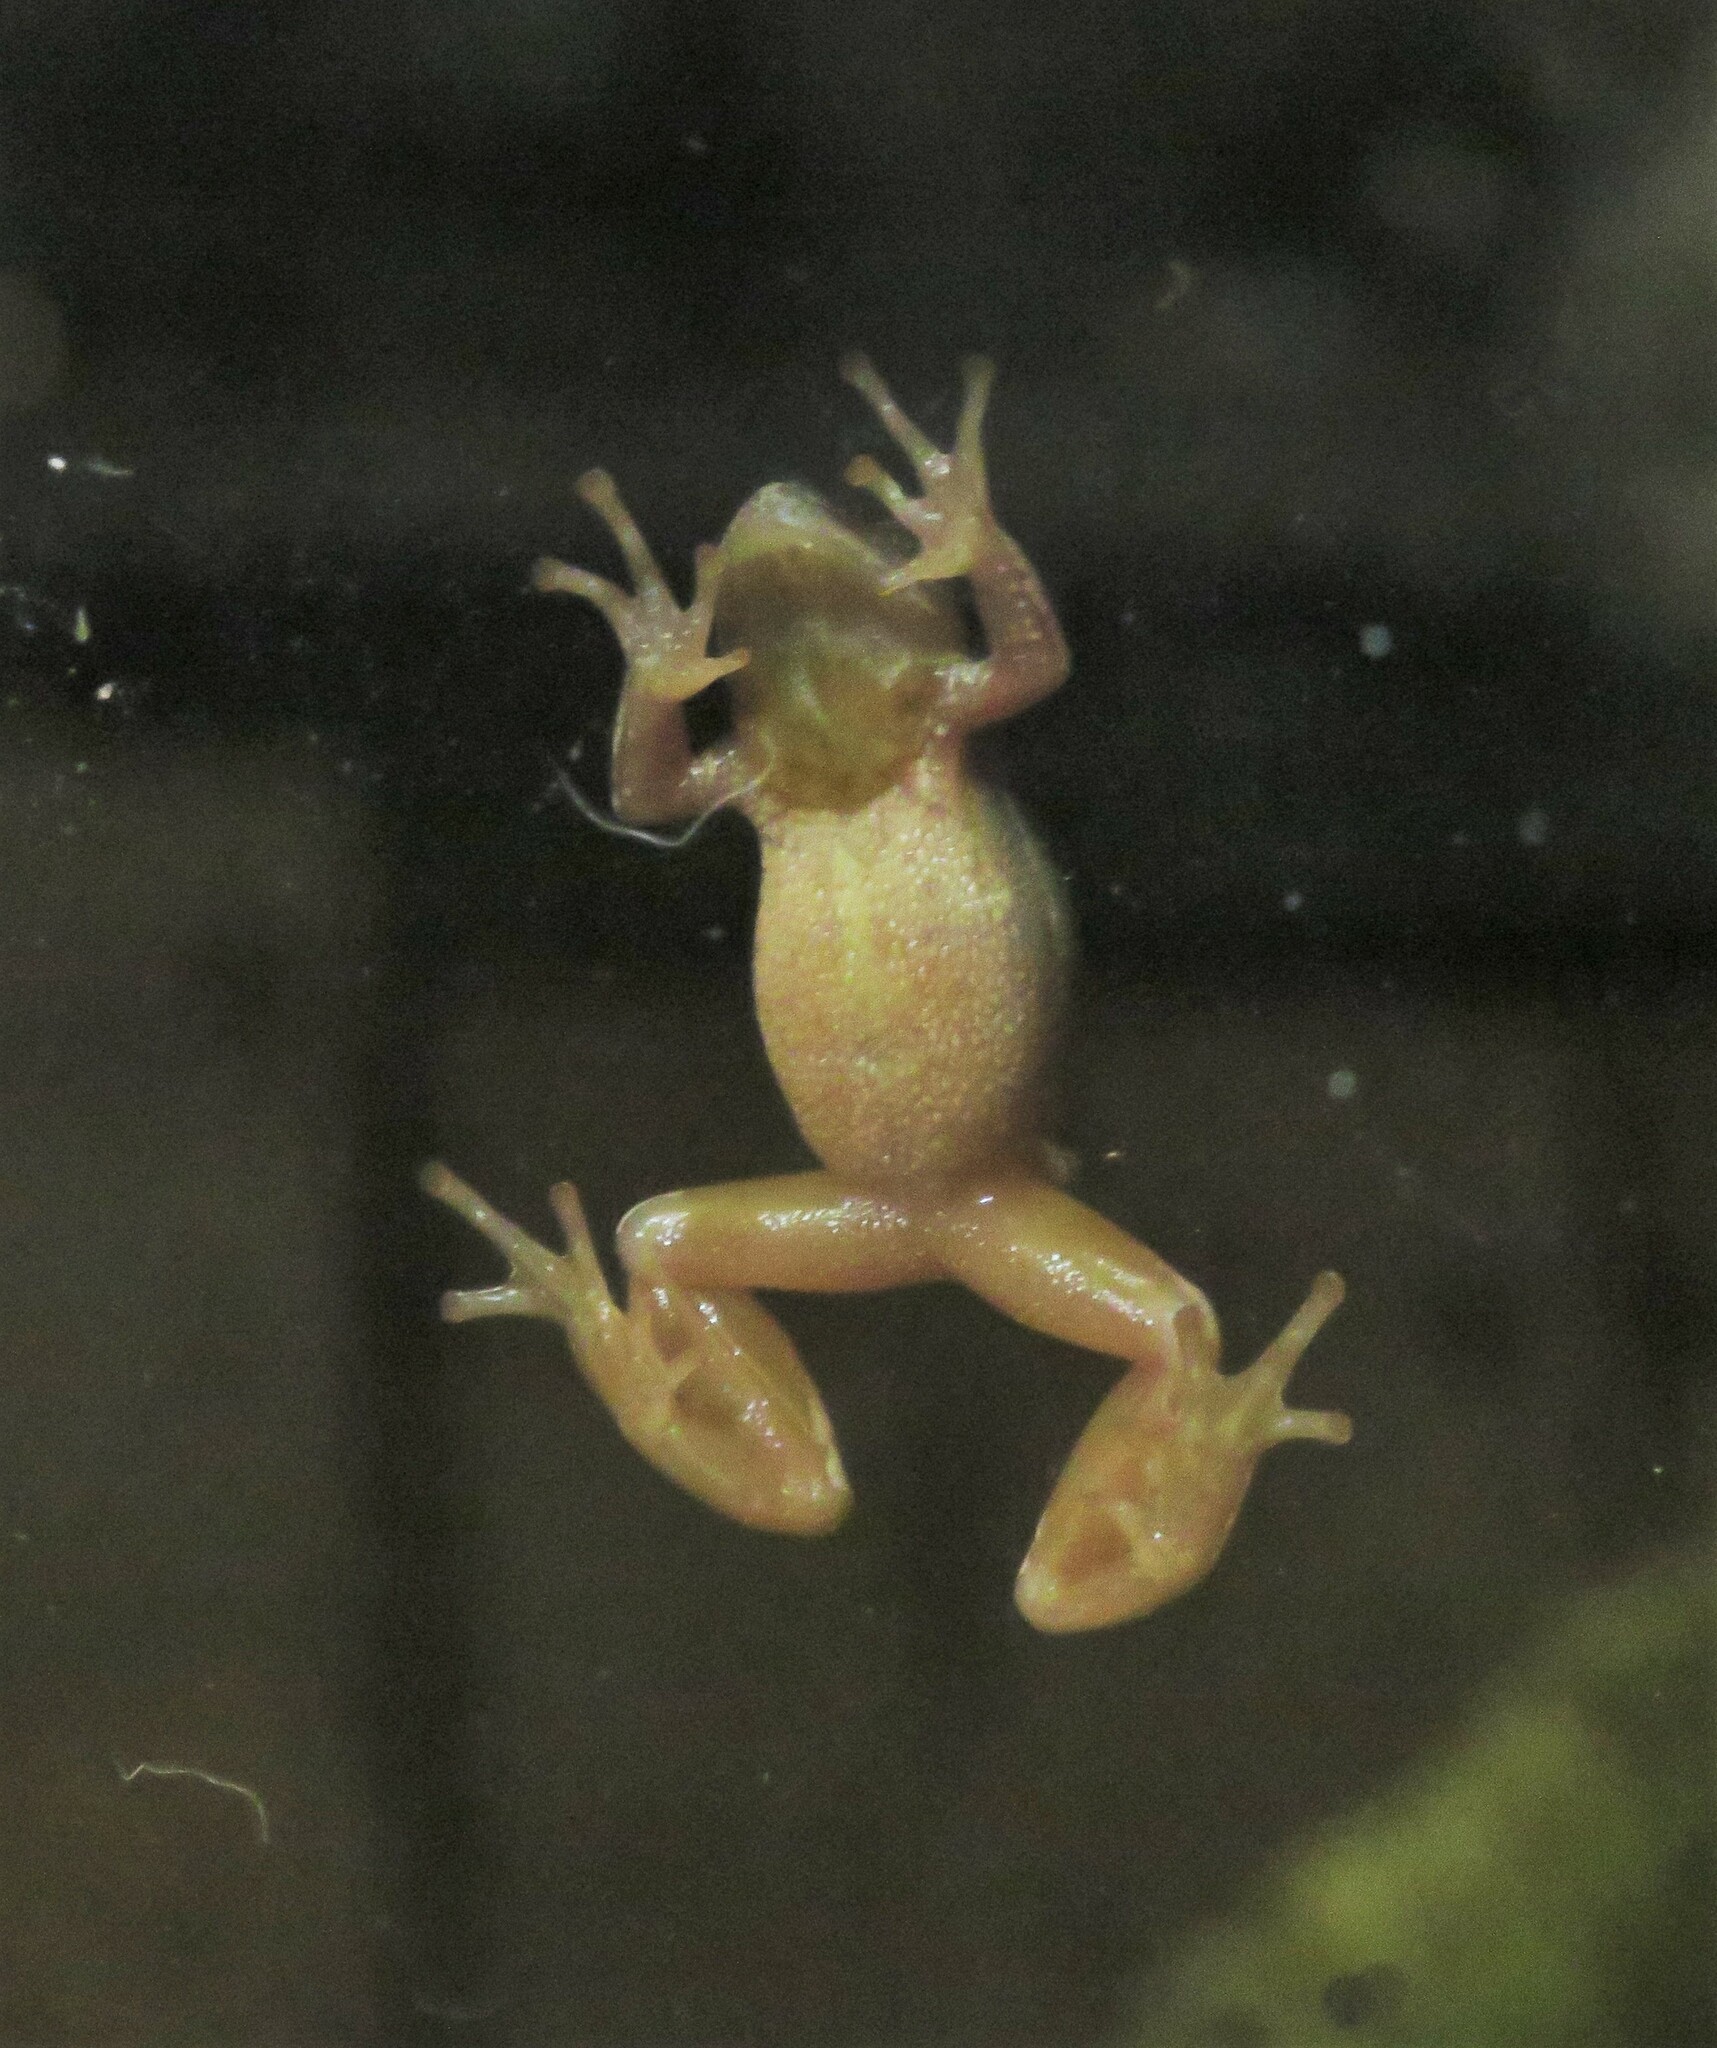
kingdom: Animalia
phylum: Chordata
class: Amphibia
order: Anura
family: Hylidae
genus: Pseudacris
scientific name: Pseudacris crucifer
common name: Spring peeper
